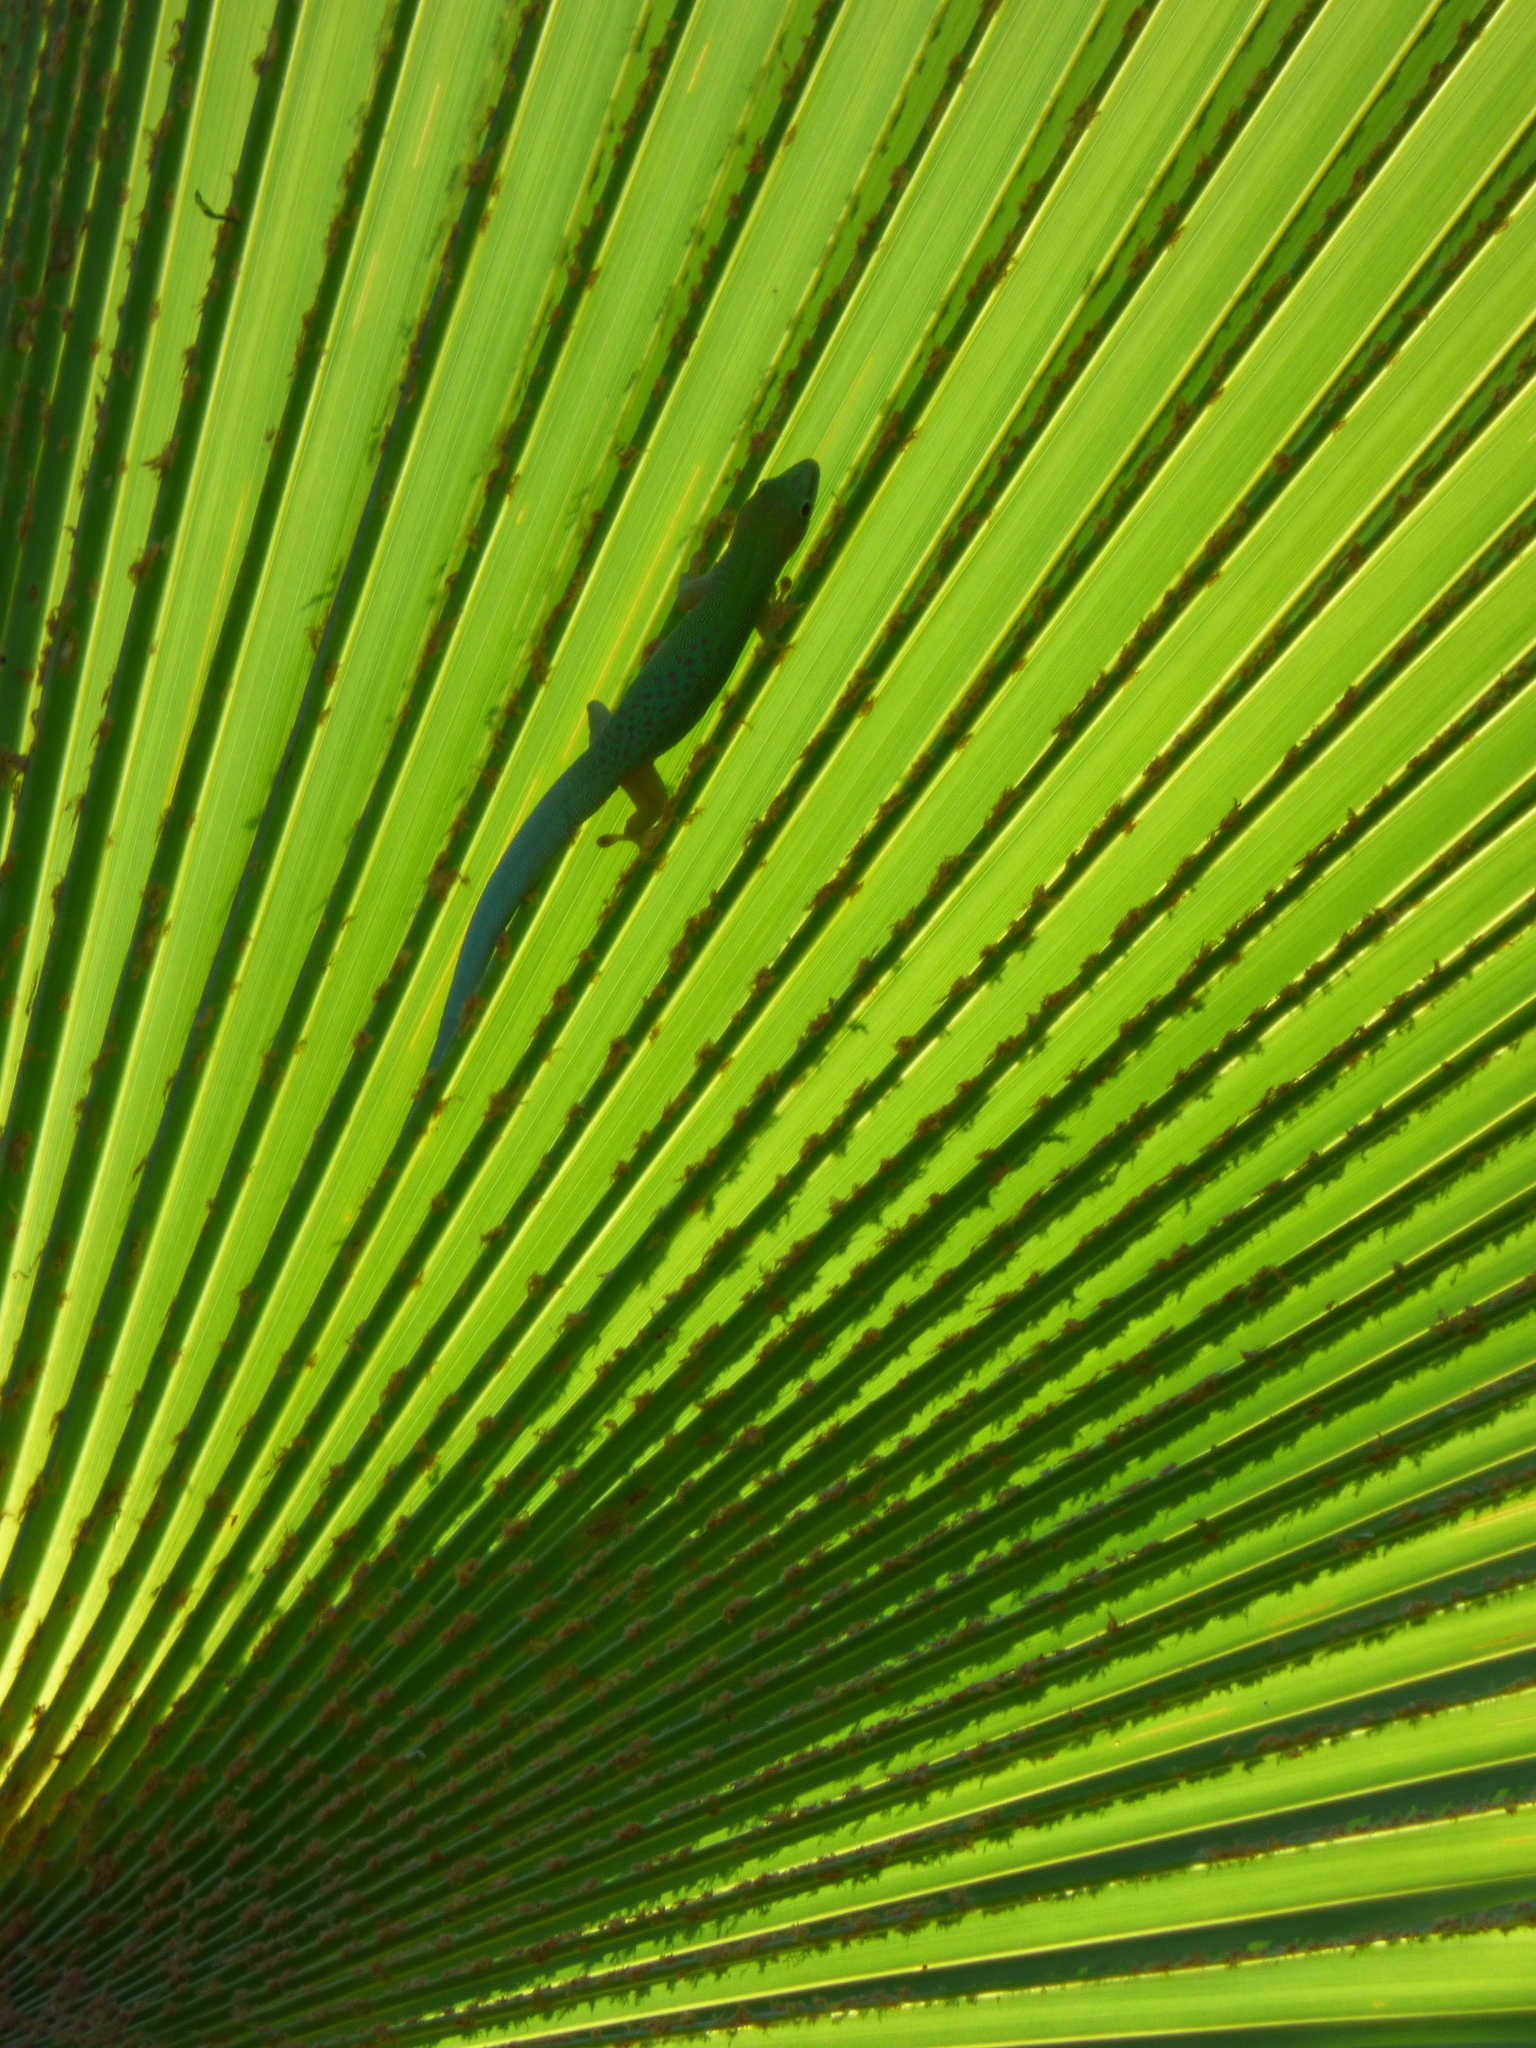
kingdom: Animalia
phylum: Chordata
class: Squamata
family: Gekkonidae
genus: Phelsuma
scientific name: Phelsuma dubia
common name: Zanzibar day gecko
